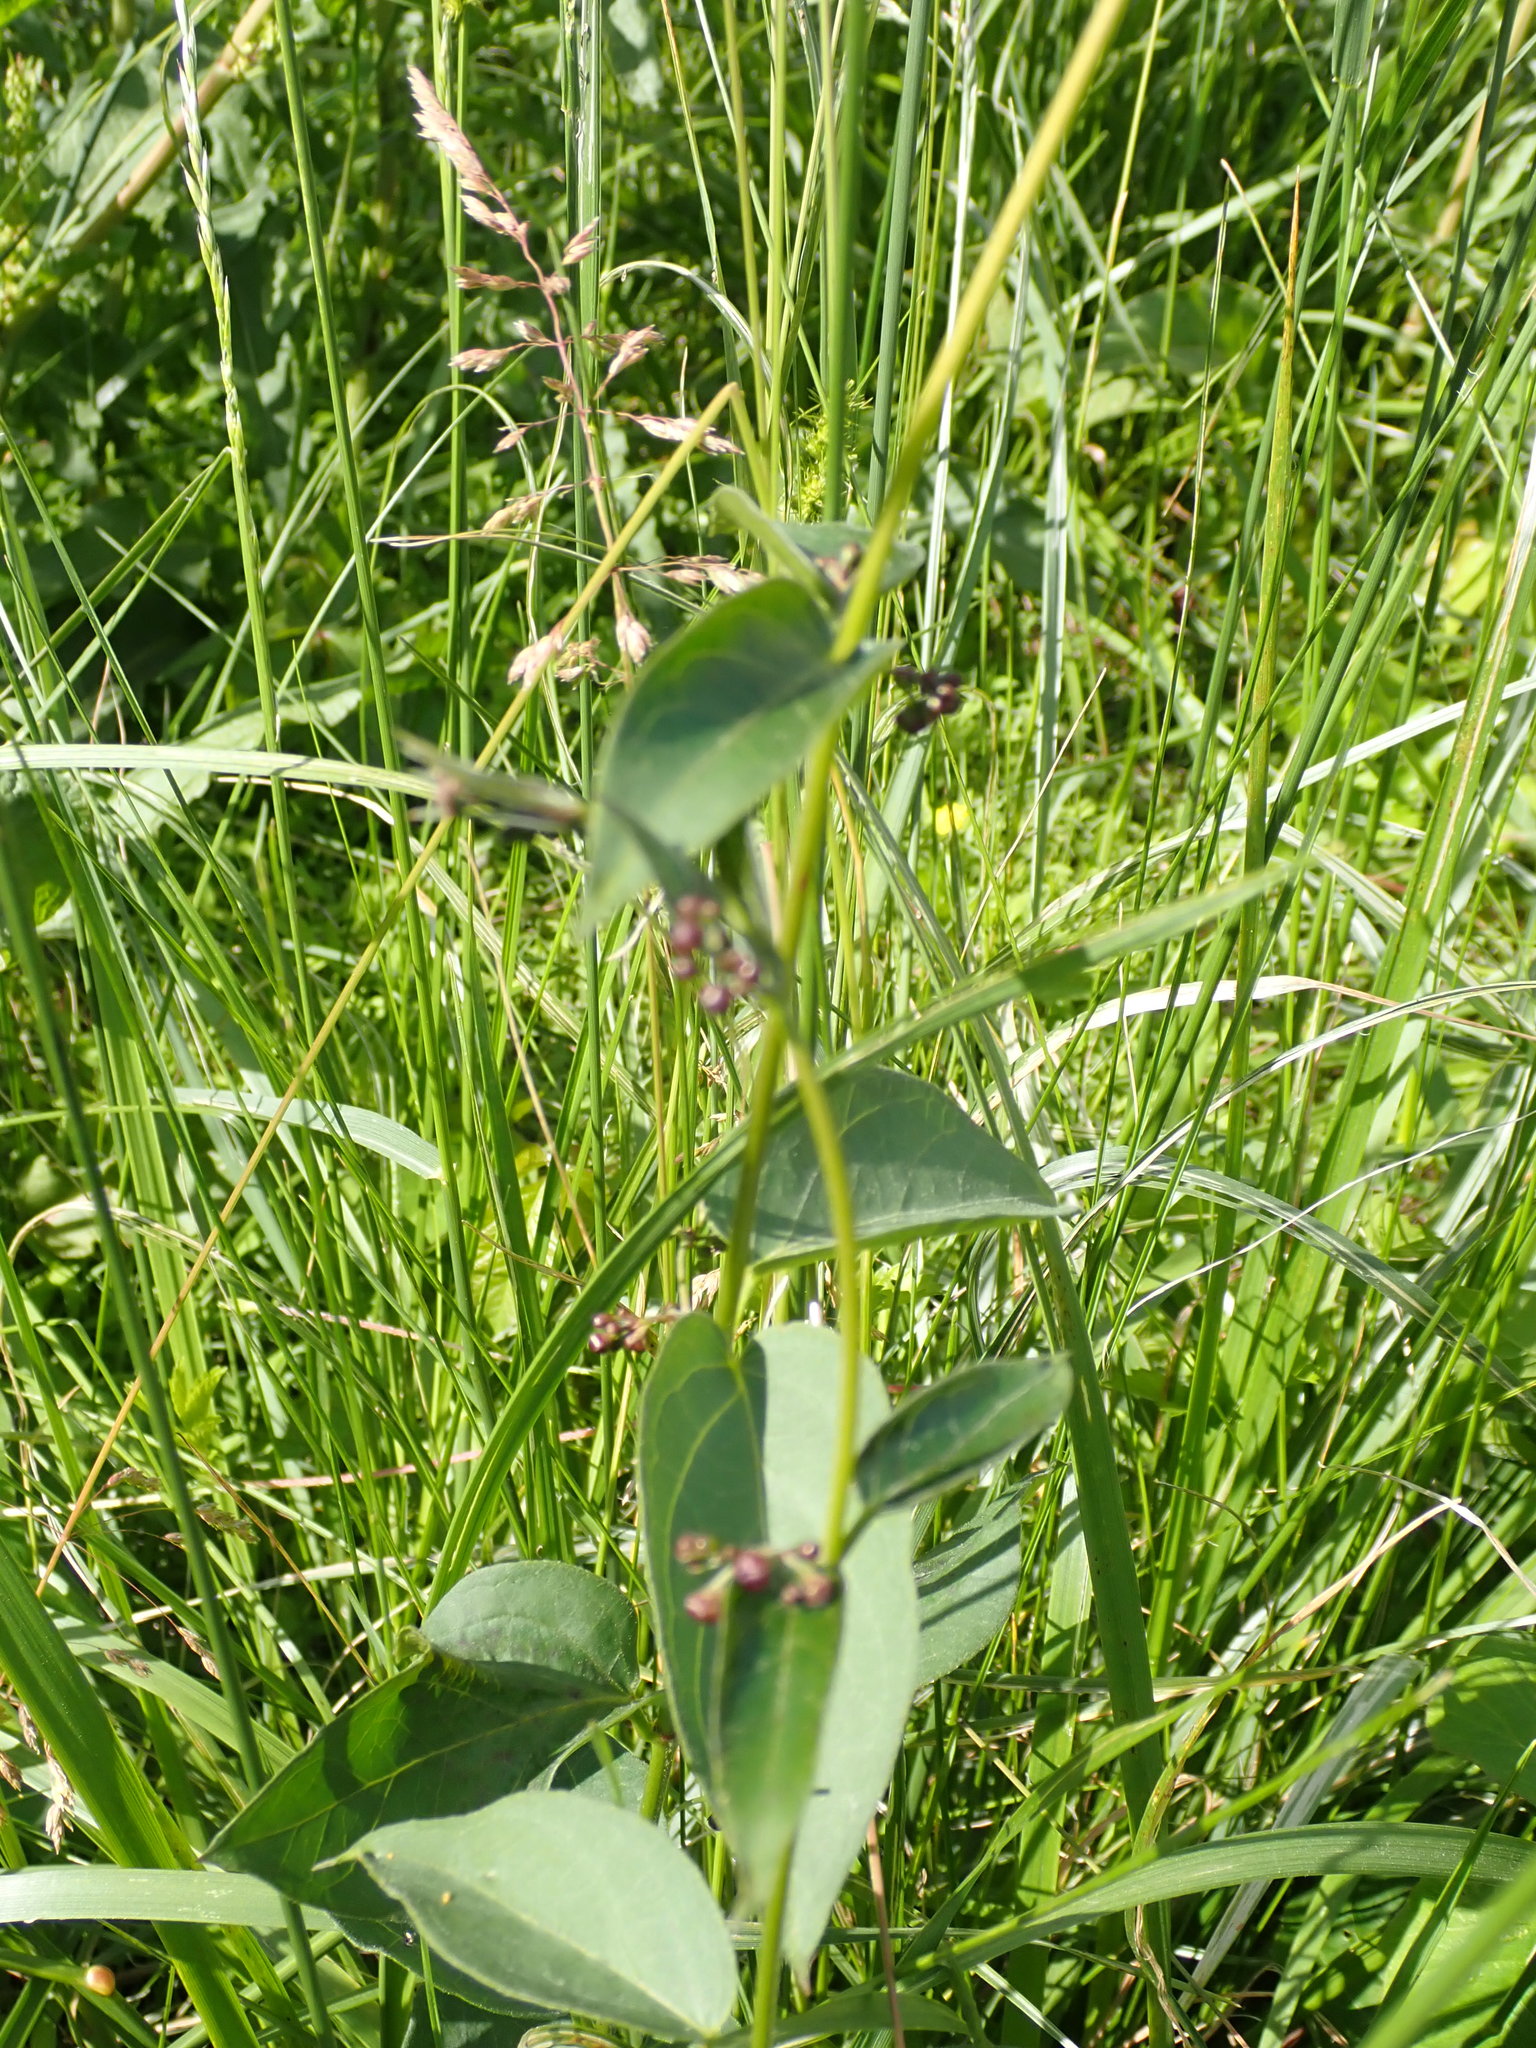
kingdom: Plantae
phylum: Tracheophyta
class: Magnoliopsida
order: Gentianales
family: Apocynaceae
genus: Vincetoxicum
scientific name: Vincetoxicum nigrum
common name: Black swallow-wort
